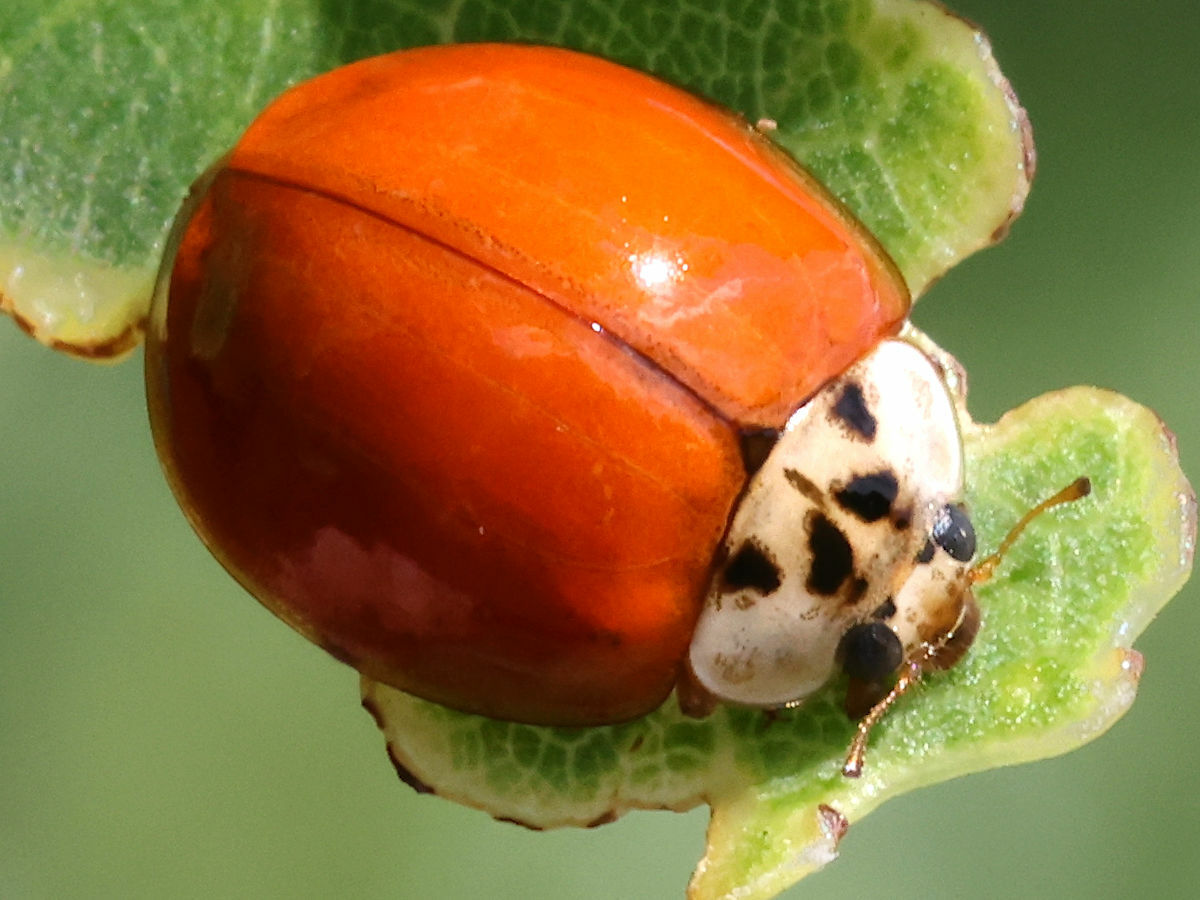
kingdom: Animalia
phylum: Arthropoda
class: Insecta
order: Coleoptera
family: Coccinellidae
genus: Harmonia
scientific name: Harmonia axyridis
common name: Harlequin ladybird
